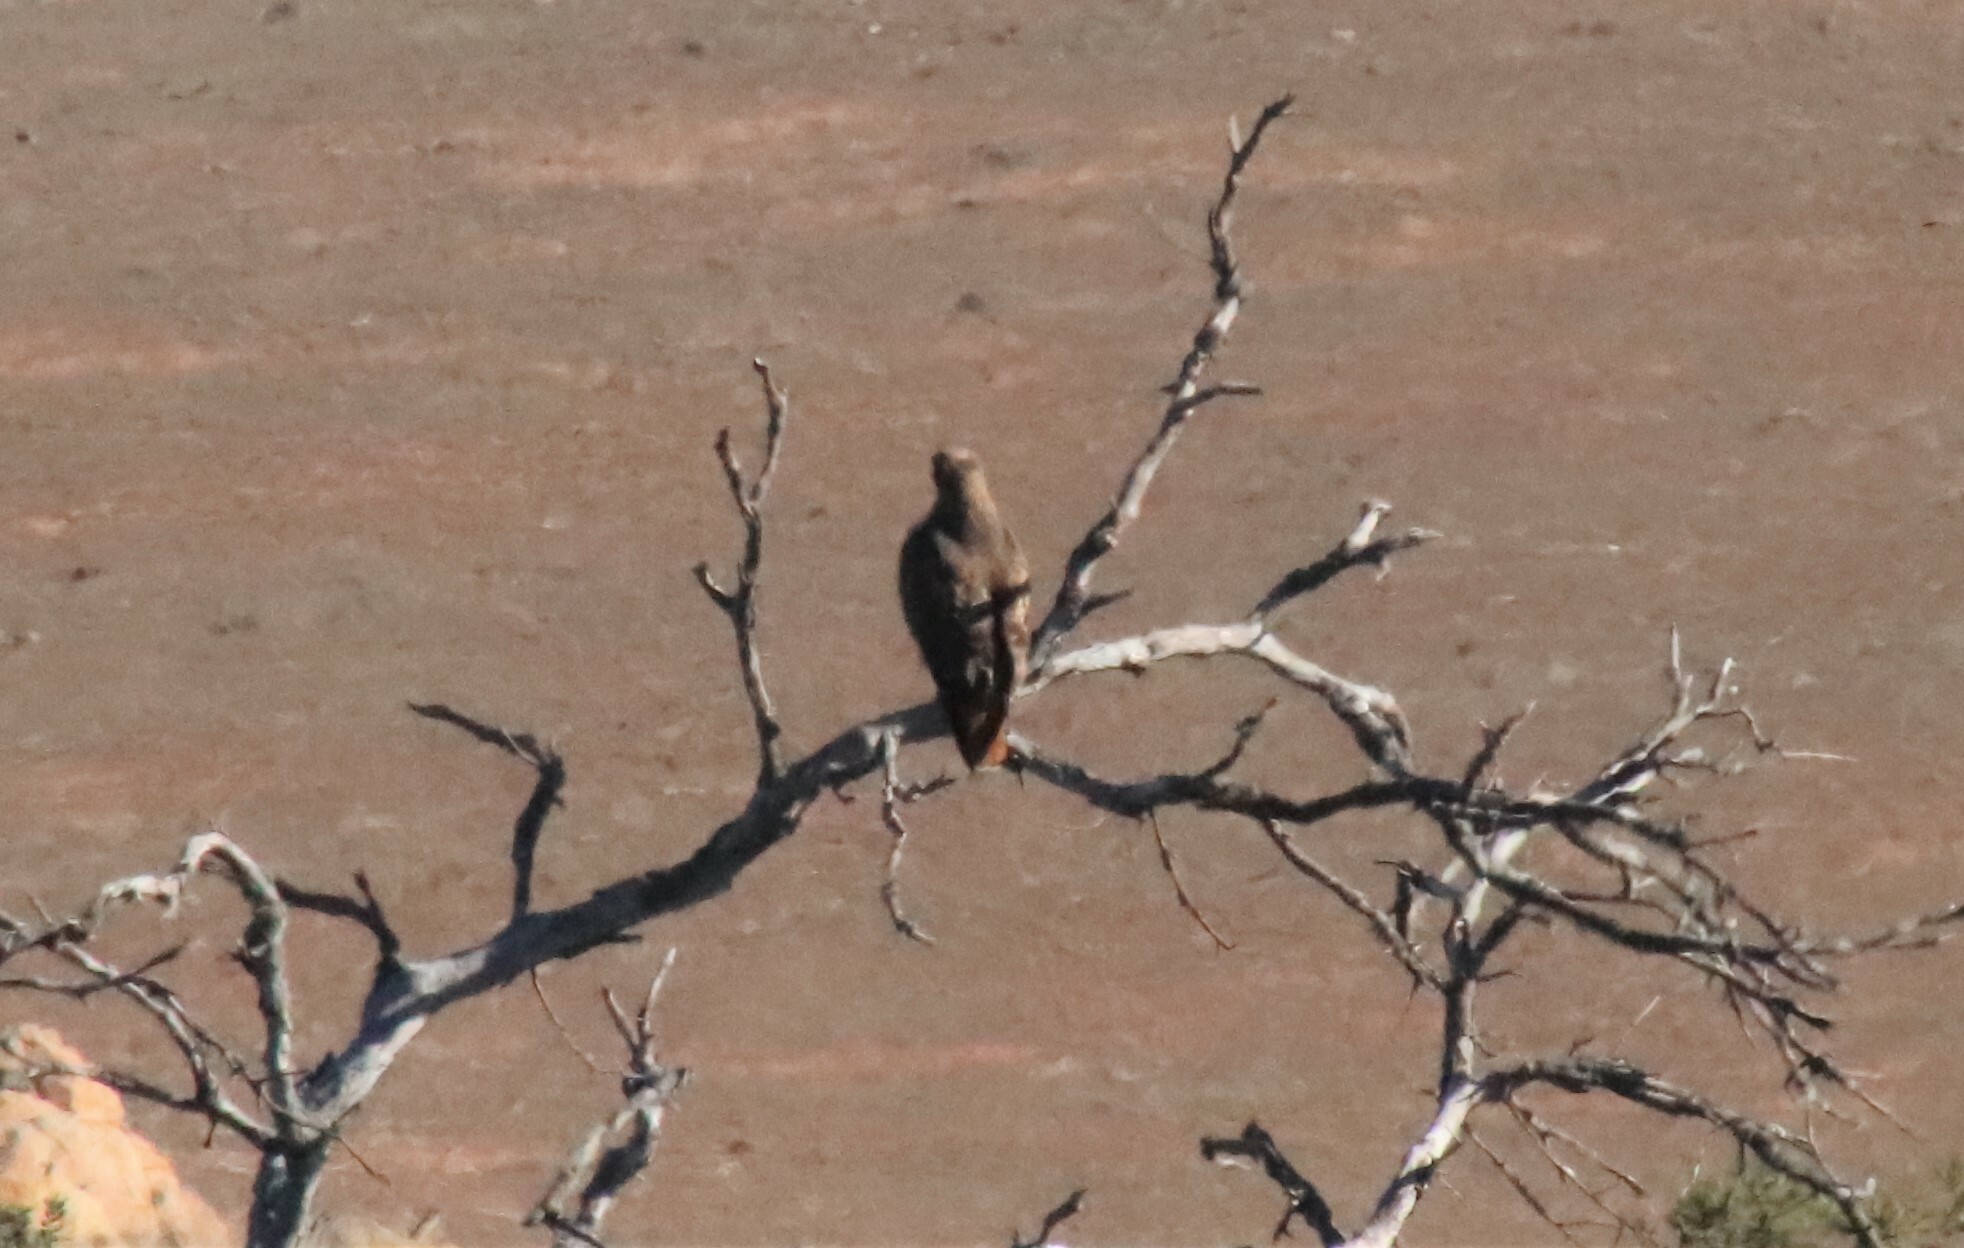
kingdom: Animalia
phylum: Chordata
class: Aves
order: Accipitriformes
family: Accipitridae
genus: Buteo
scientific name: Buteo jamaicensis
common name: Red-tailed hawk
